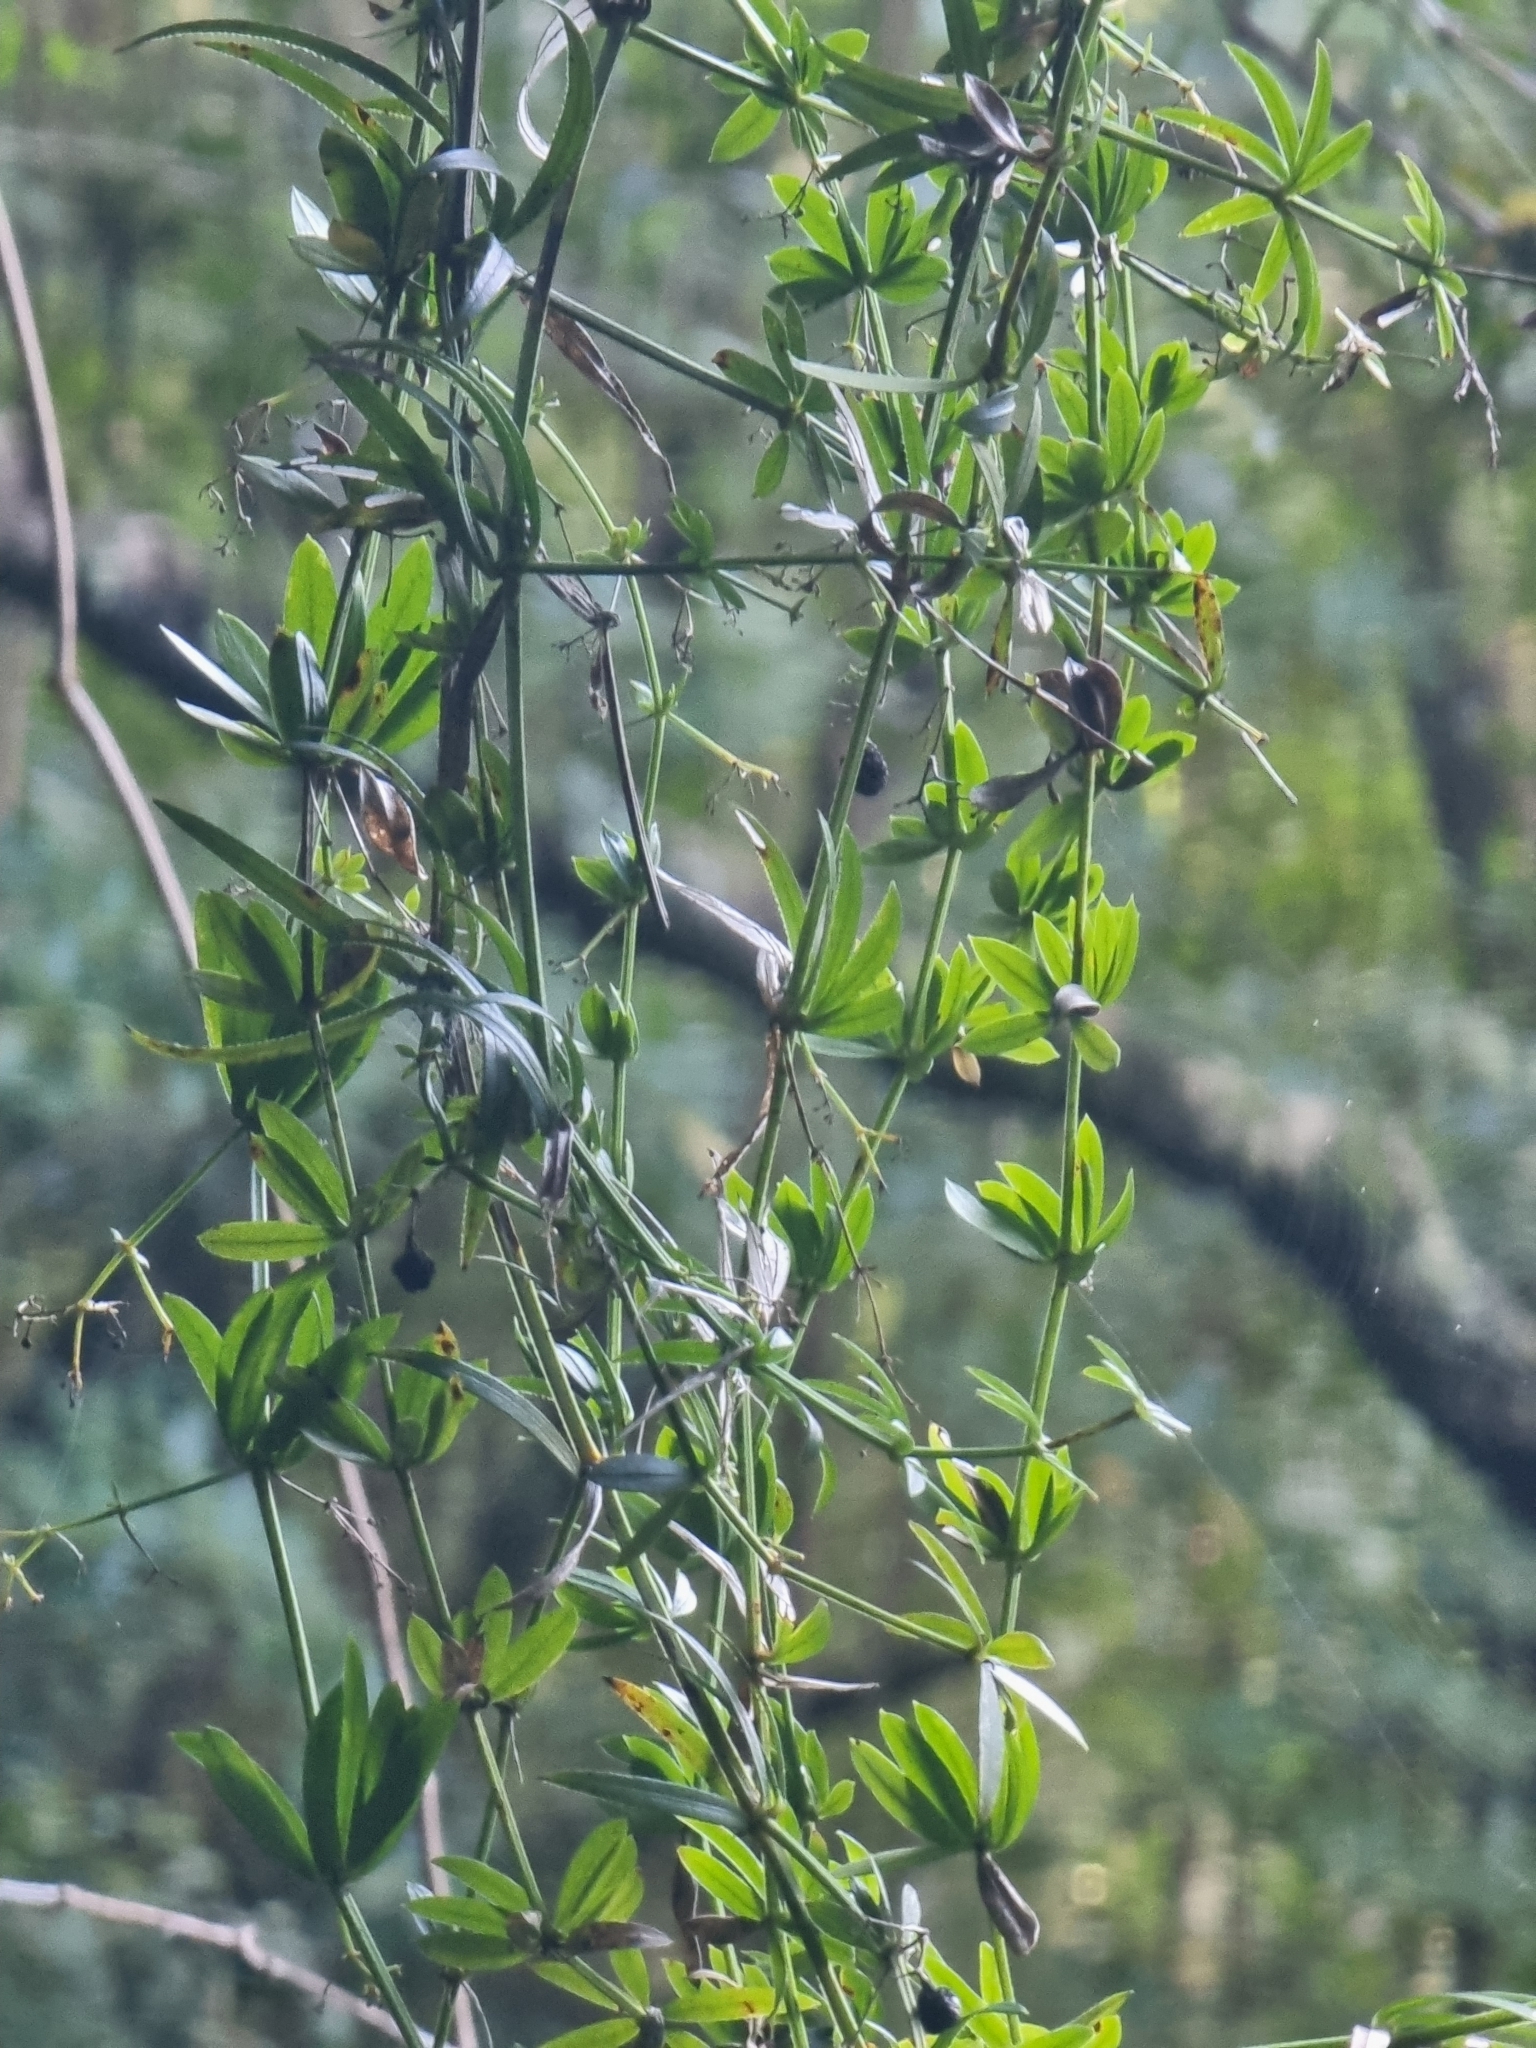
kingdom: Plantae
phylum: Tracheophyta
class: Magnoliopsida
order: Gentianales
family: Rubiaceae
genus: Rubia
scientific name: Rubia occidens
